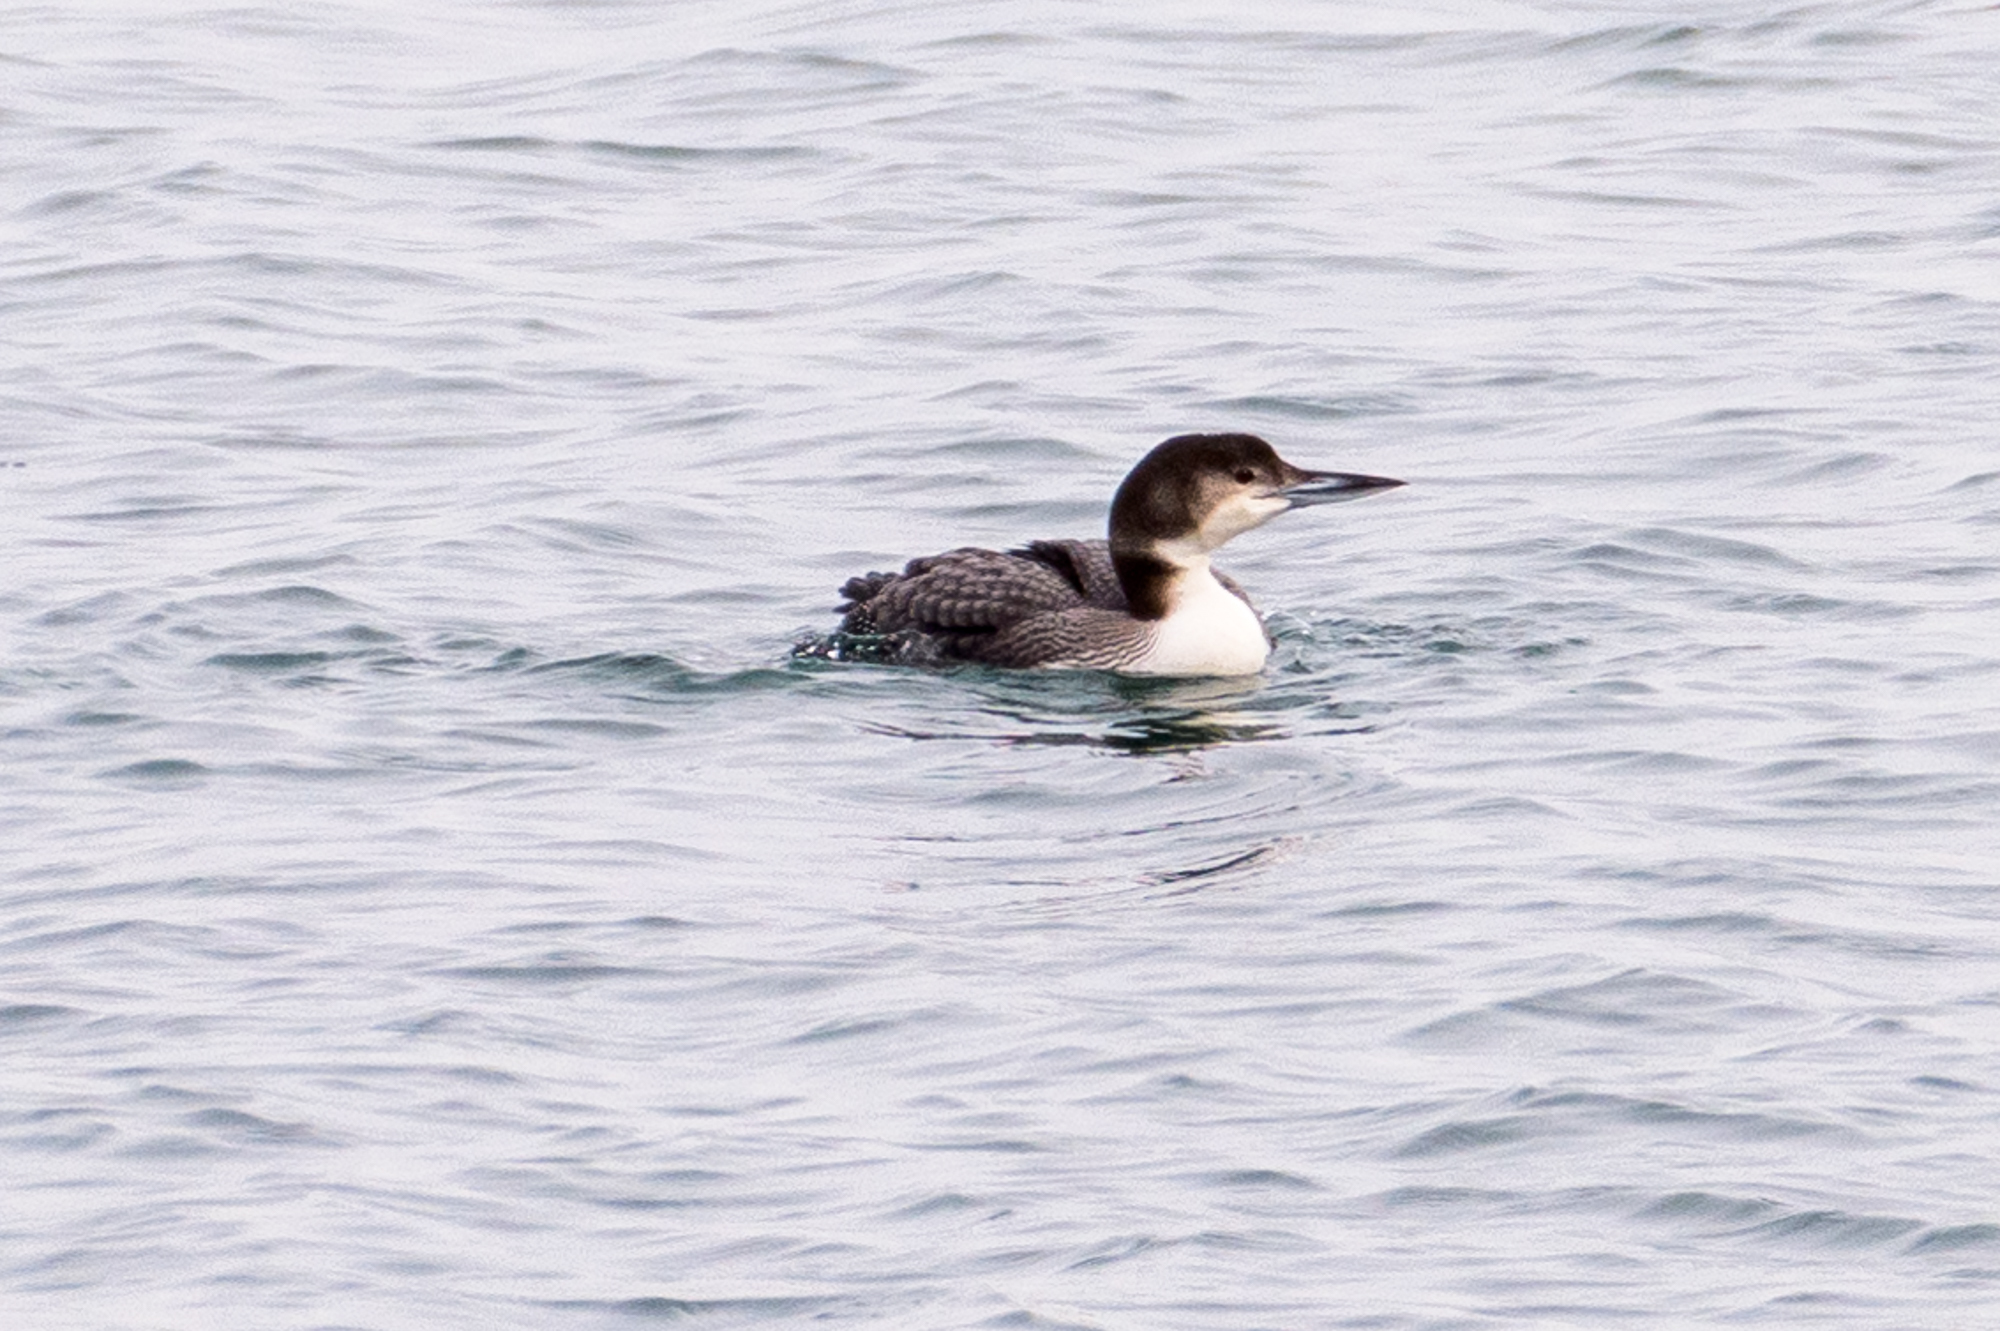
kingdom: Animalia
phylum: Chordata
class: Aves
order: Gaviiformes
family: Gaviidae
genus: Gavia
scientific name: Gavia immer
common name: Common loon
